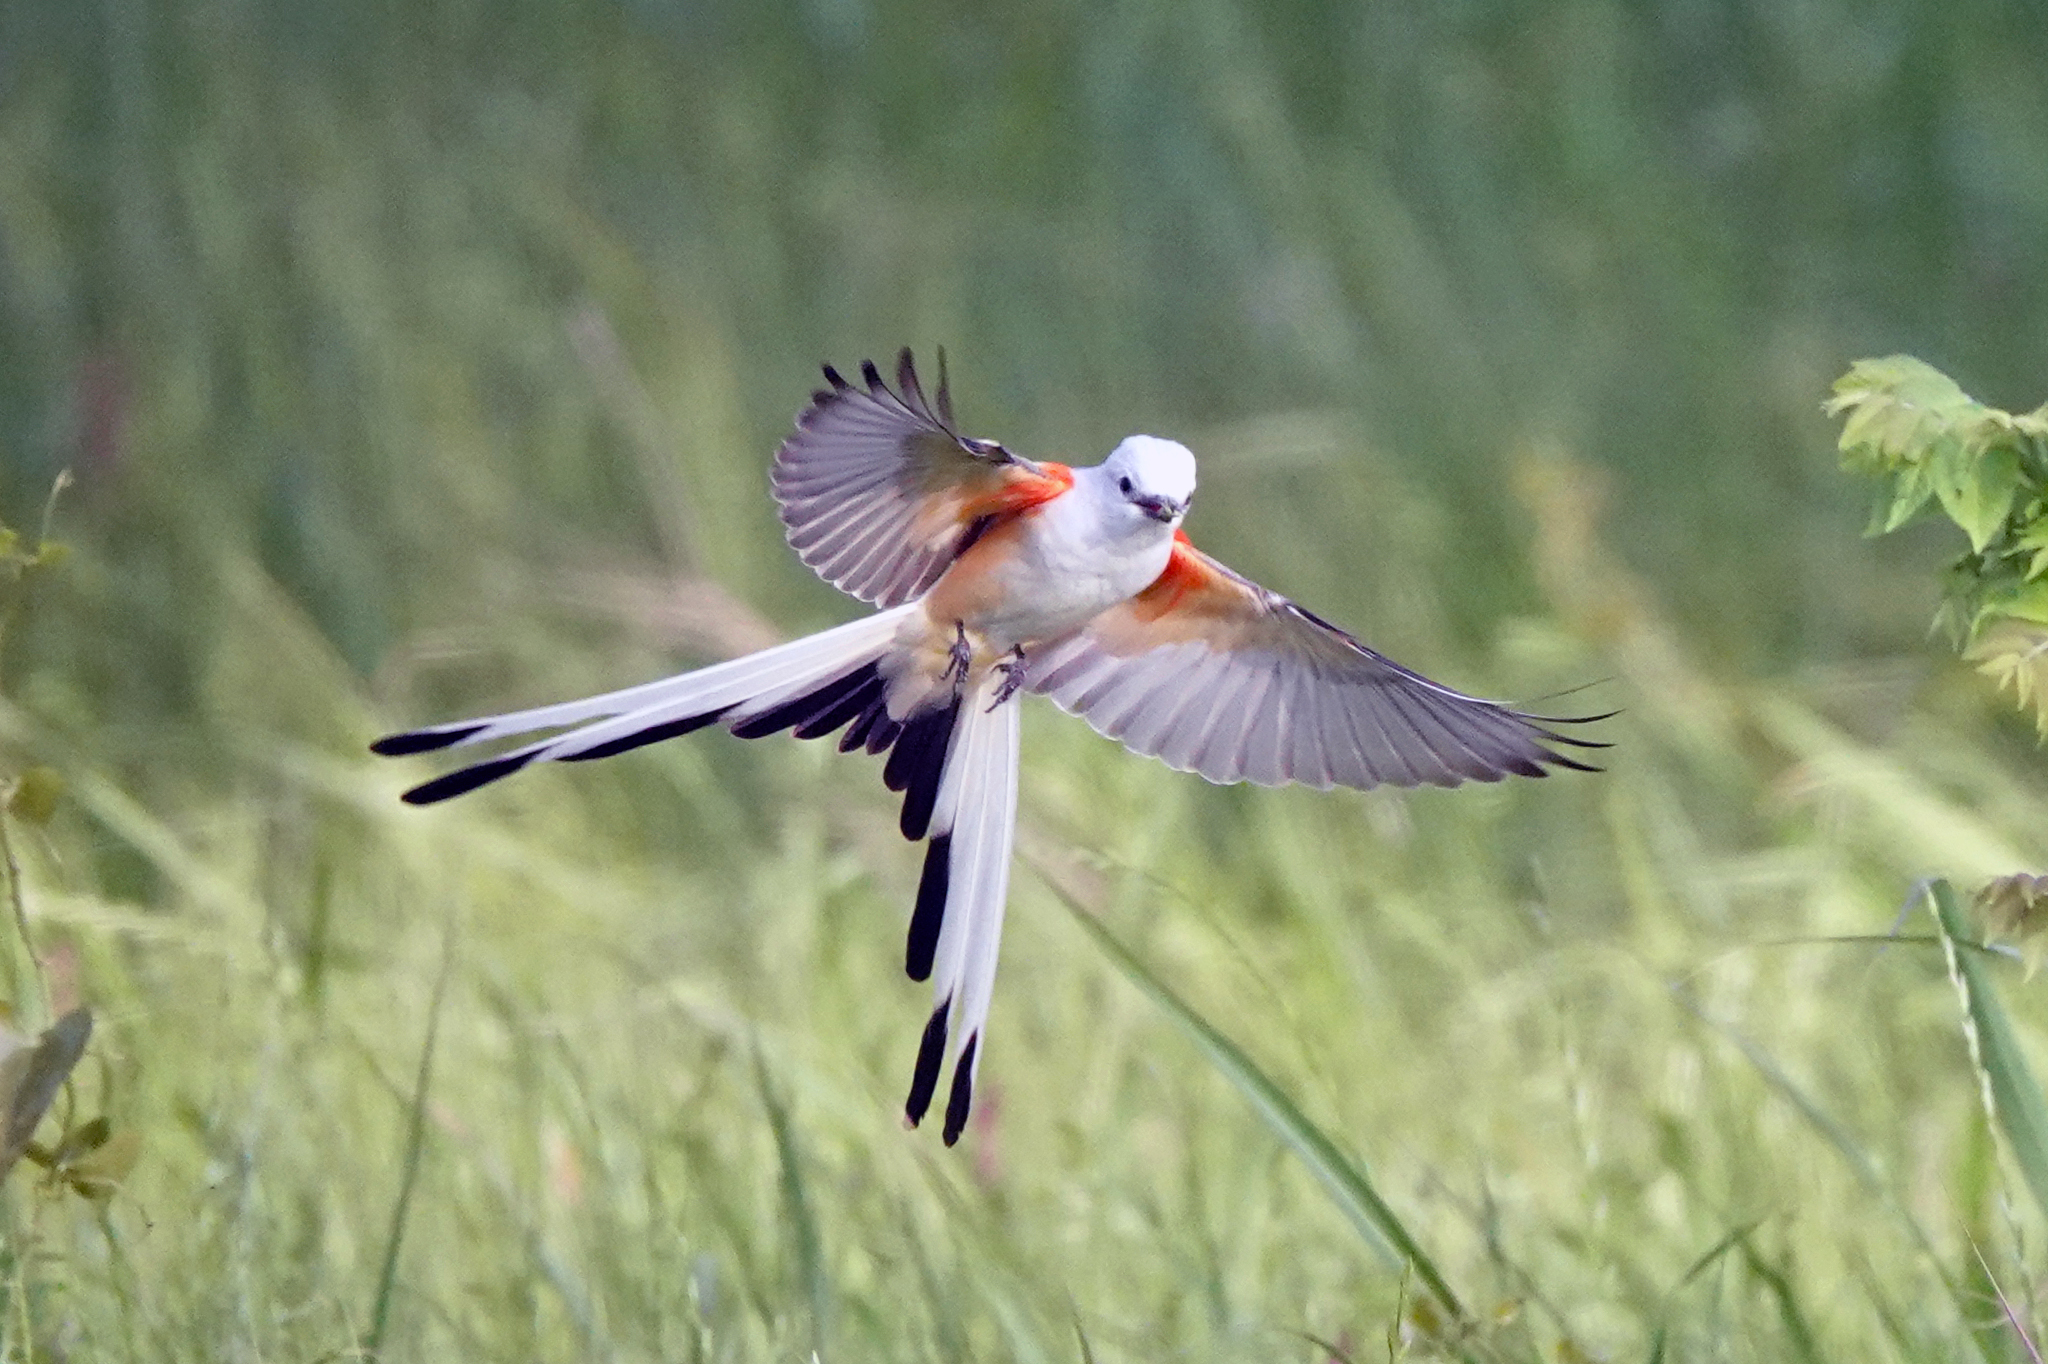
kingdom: Animalia
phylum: Chordata
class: Aves
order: Passeriformes
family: Tyrannidae
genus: Tyrannus
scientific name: Tyrannus forficatus
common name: Scissor-tailed flycatcher
